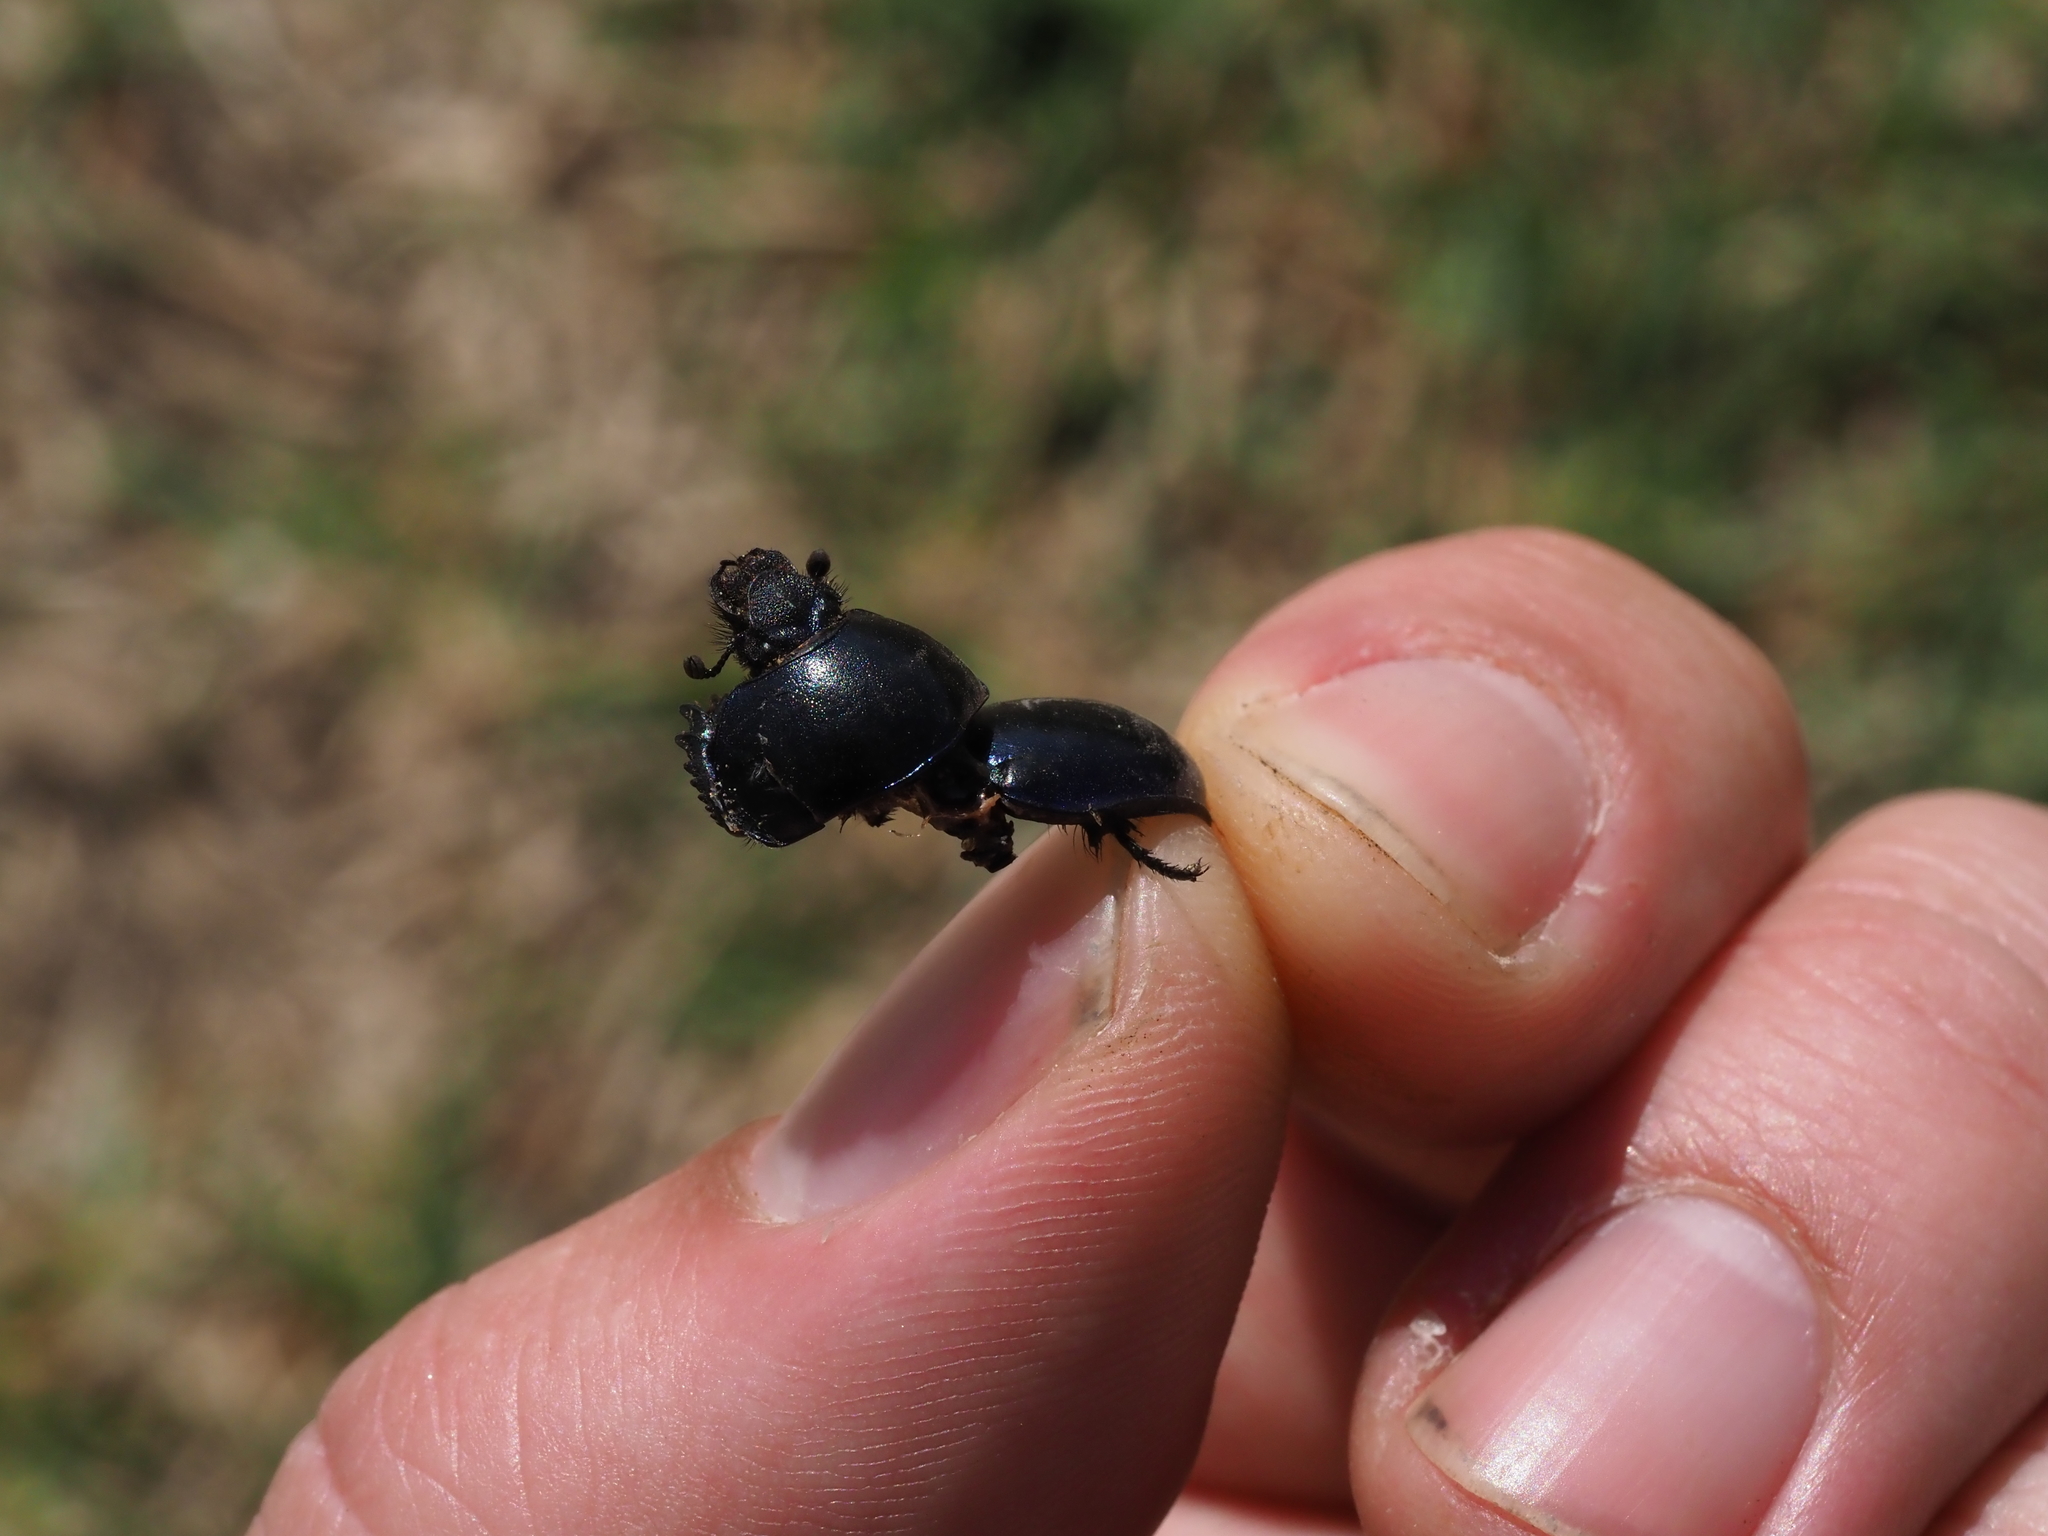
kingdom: Animalia
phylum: Arthropoda
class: Insecta
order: Coleoptera
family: Geotrupidae
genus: Trypocopris
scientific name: Trypocopris vernalis
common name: Spring dumbledor
